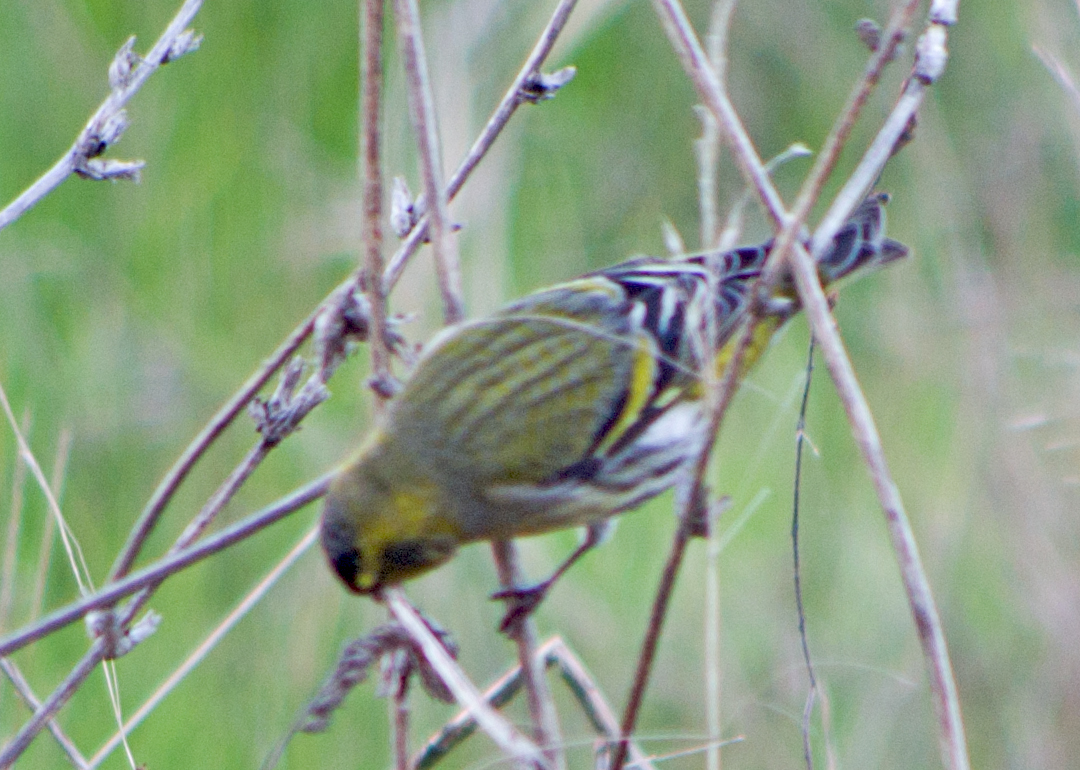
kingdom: Animalia
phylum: Chordata
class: Aves
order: Passeriformes
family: Fringillidae
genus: Spinus
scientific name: Spinus spinus
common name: Eurasian siskin
